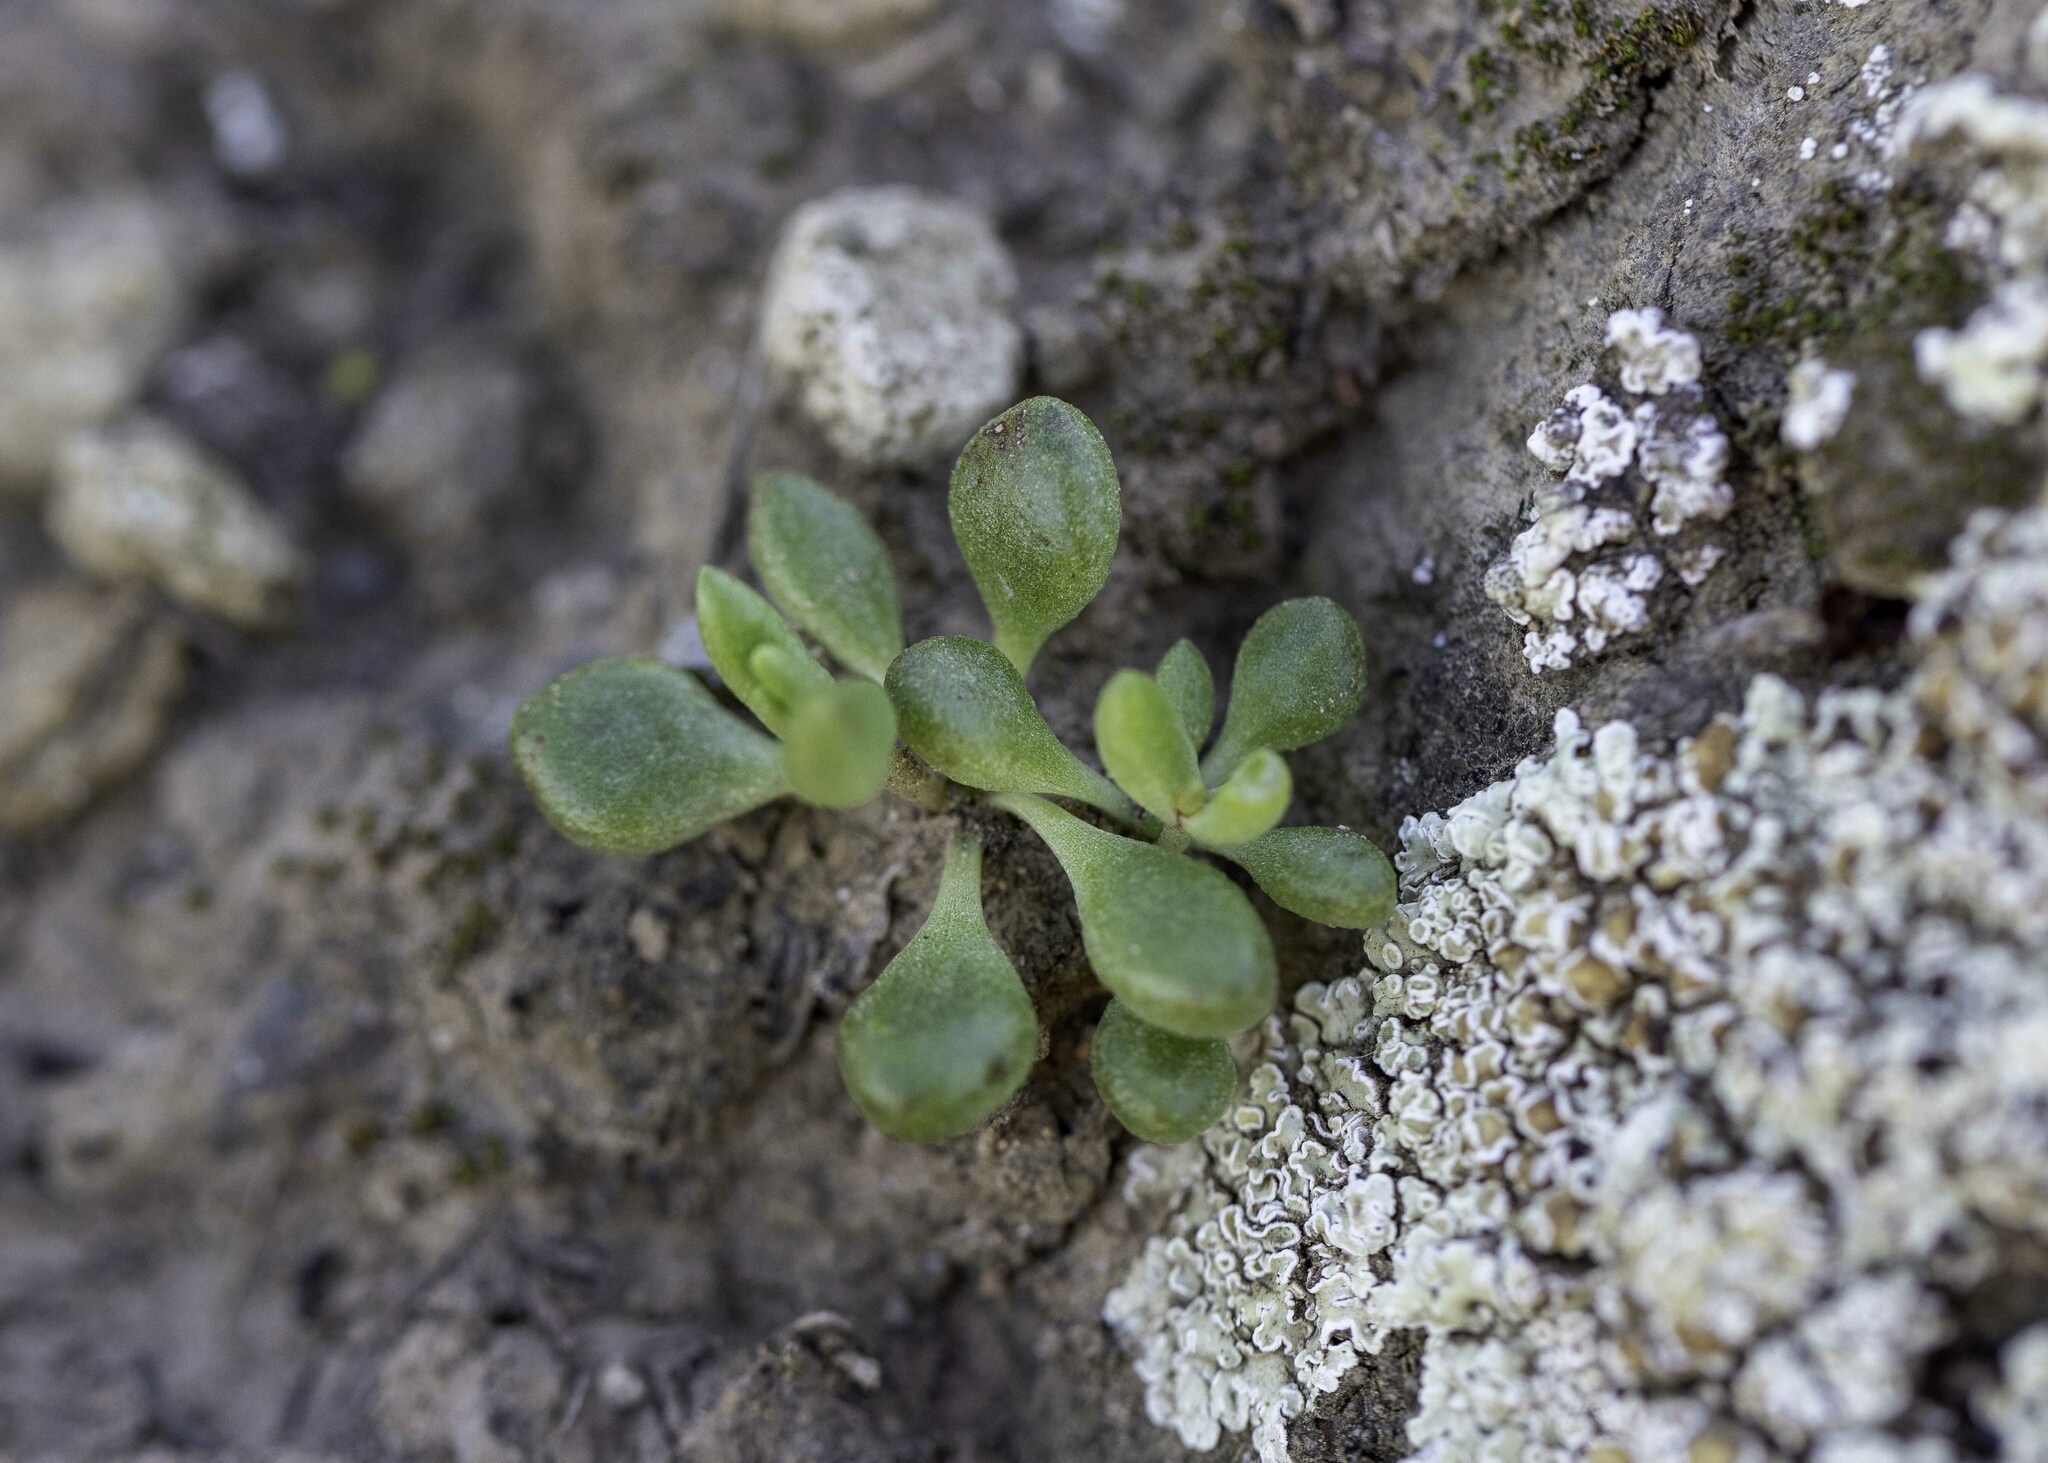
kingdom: Plantae
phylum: Tracheophyta
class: Magnoliopsida
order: Saxifragales
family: Crassulaceae
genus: Dudleya
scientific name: Dudleya blochmaniae
